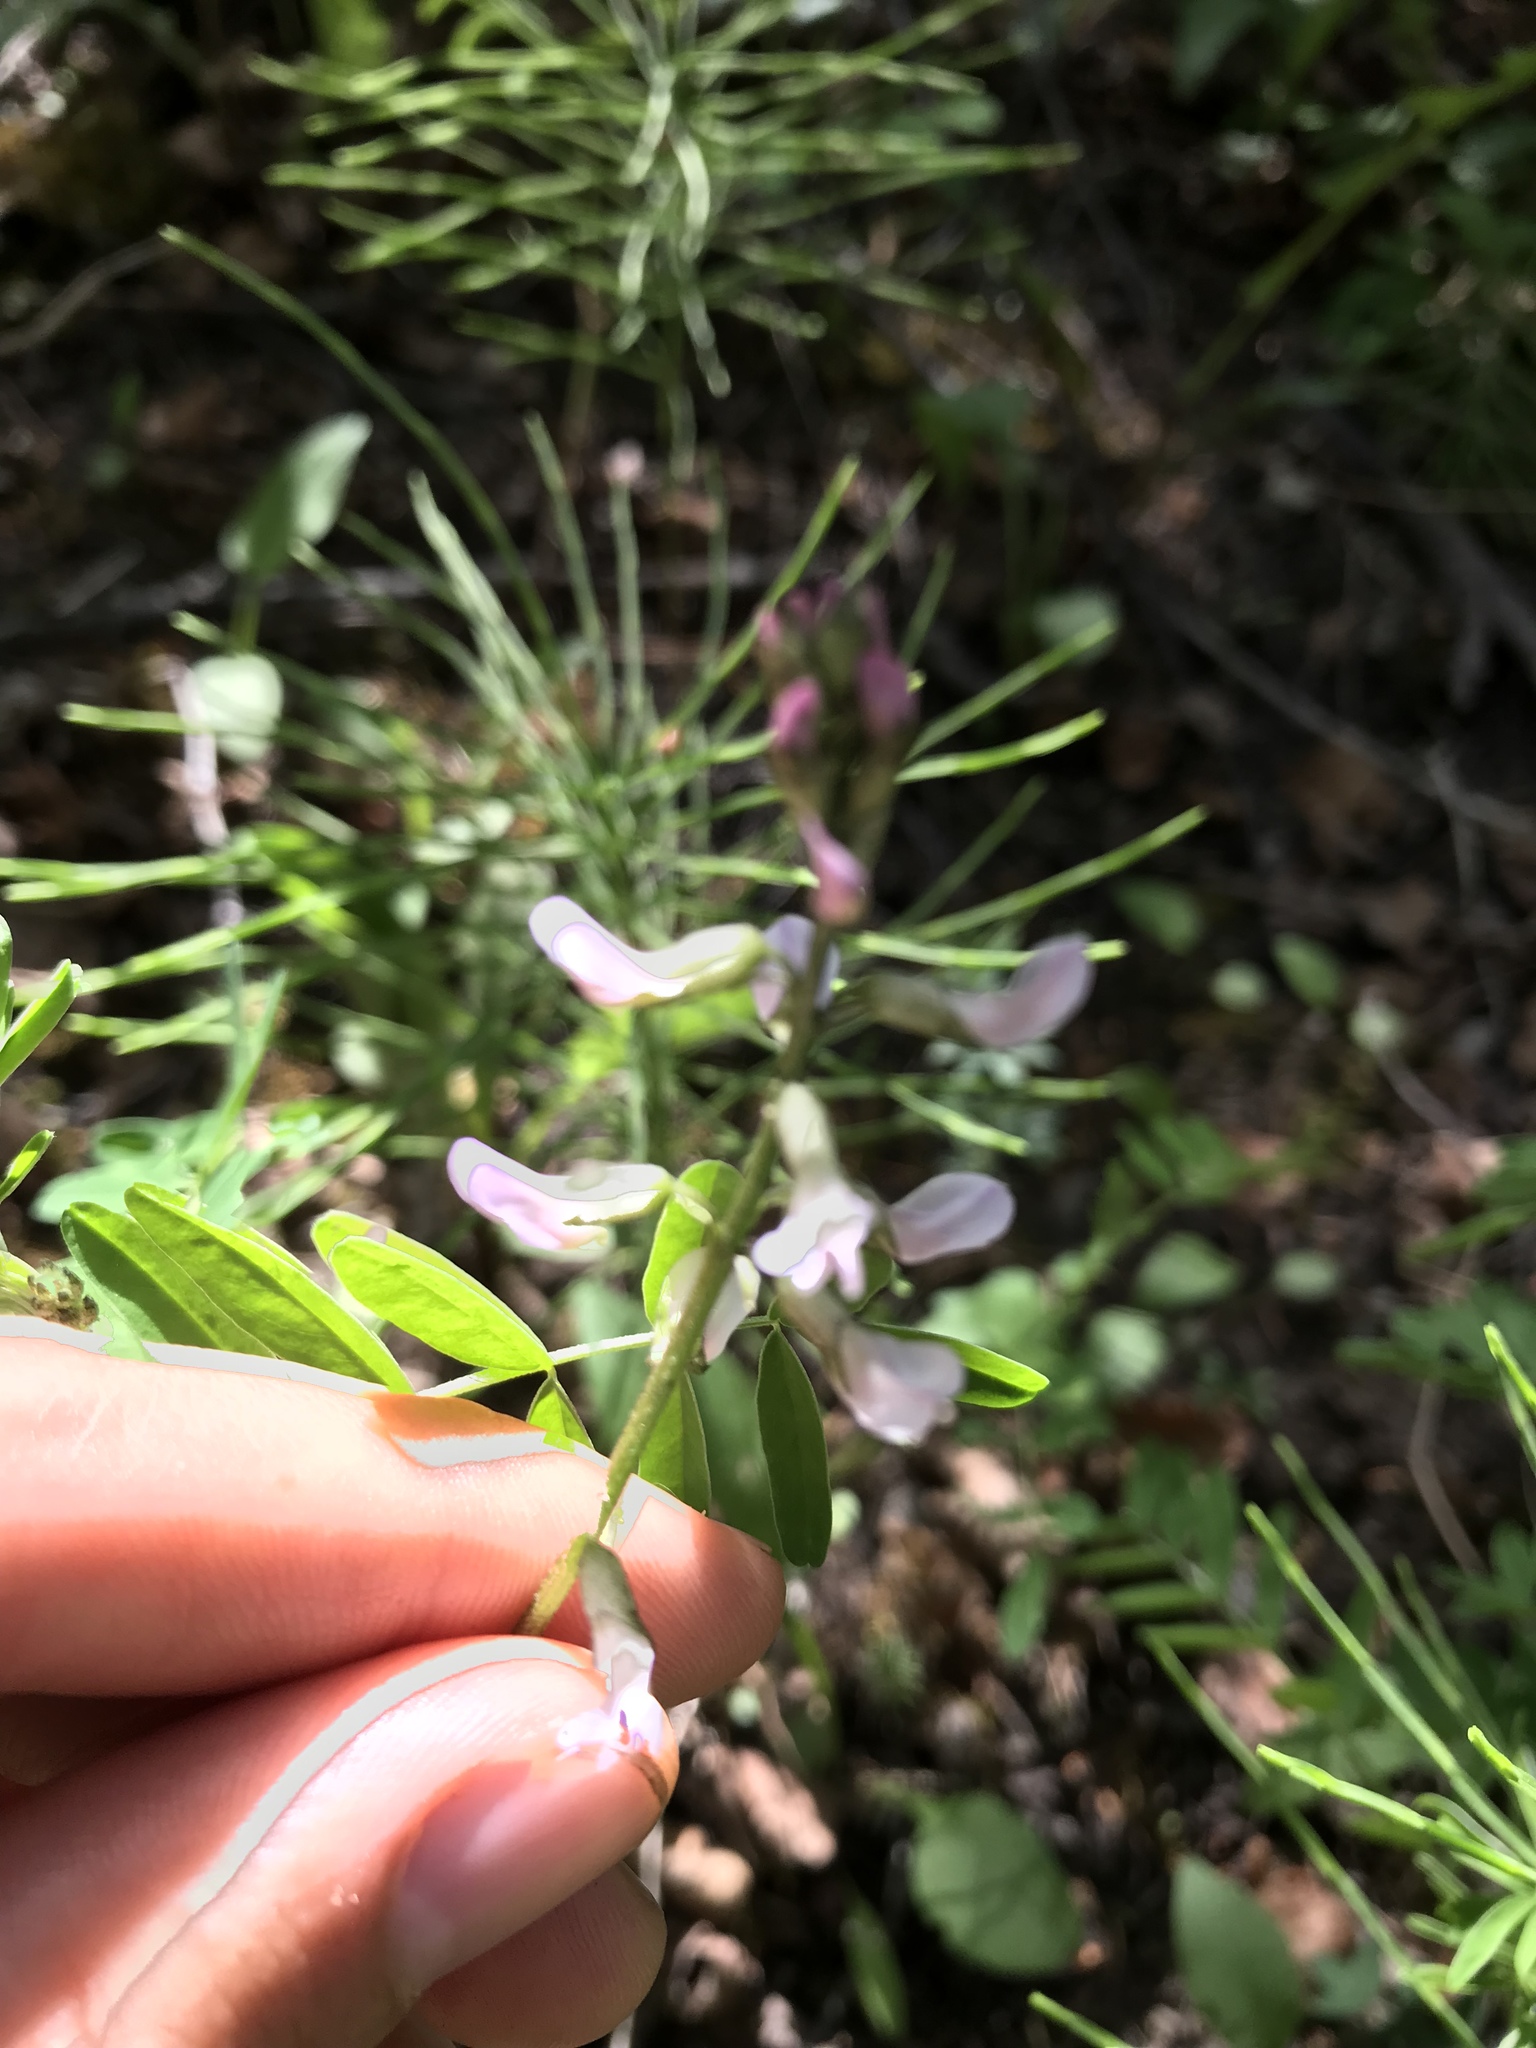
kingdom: Plantae
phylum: Tracheophyta
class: Magnoliopsida
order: Fabales
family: Fabaceae
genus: Astragalus
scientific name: Astragalus robbinsii
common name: Robbins' milk-vetch
